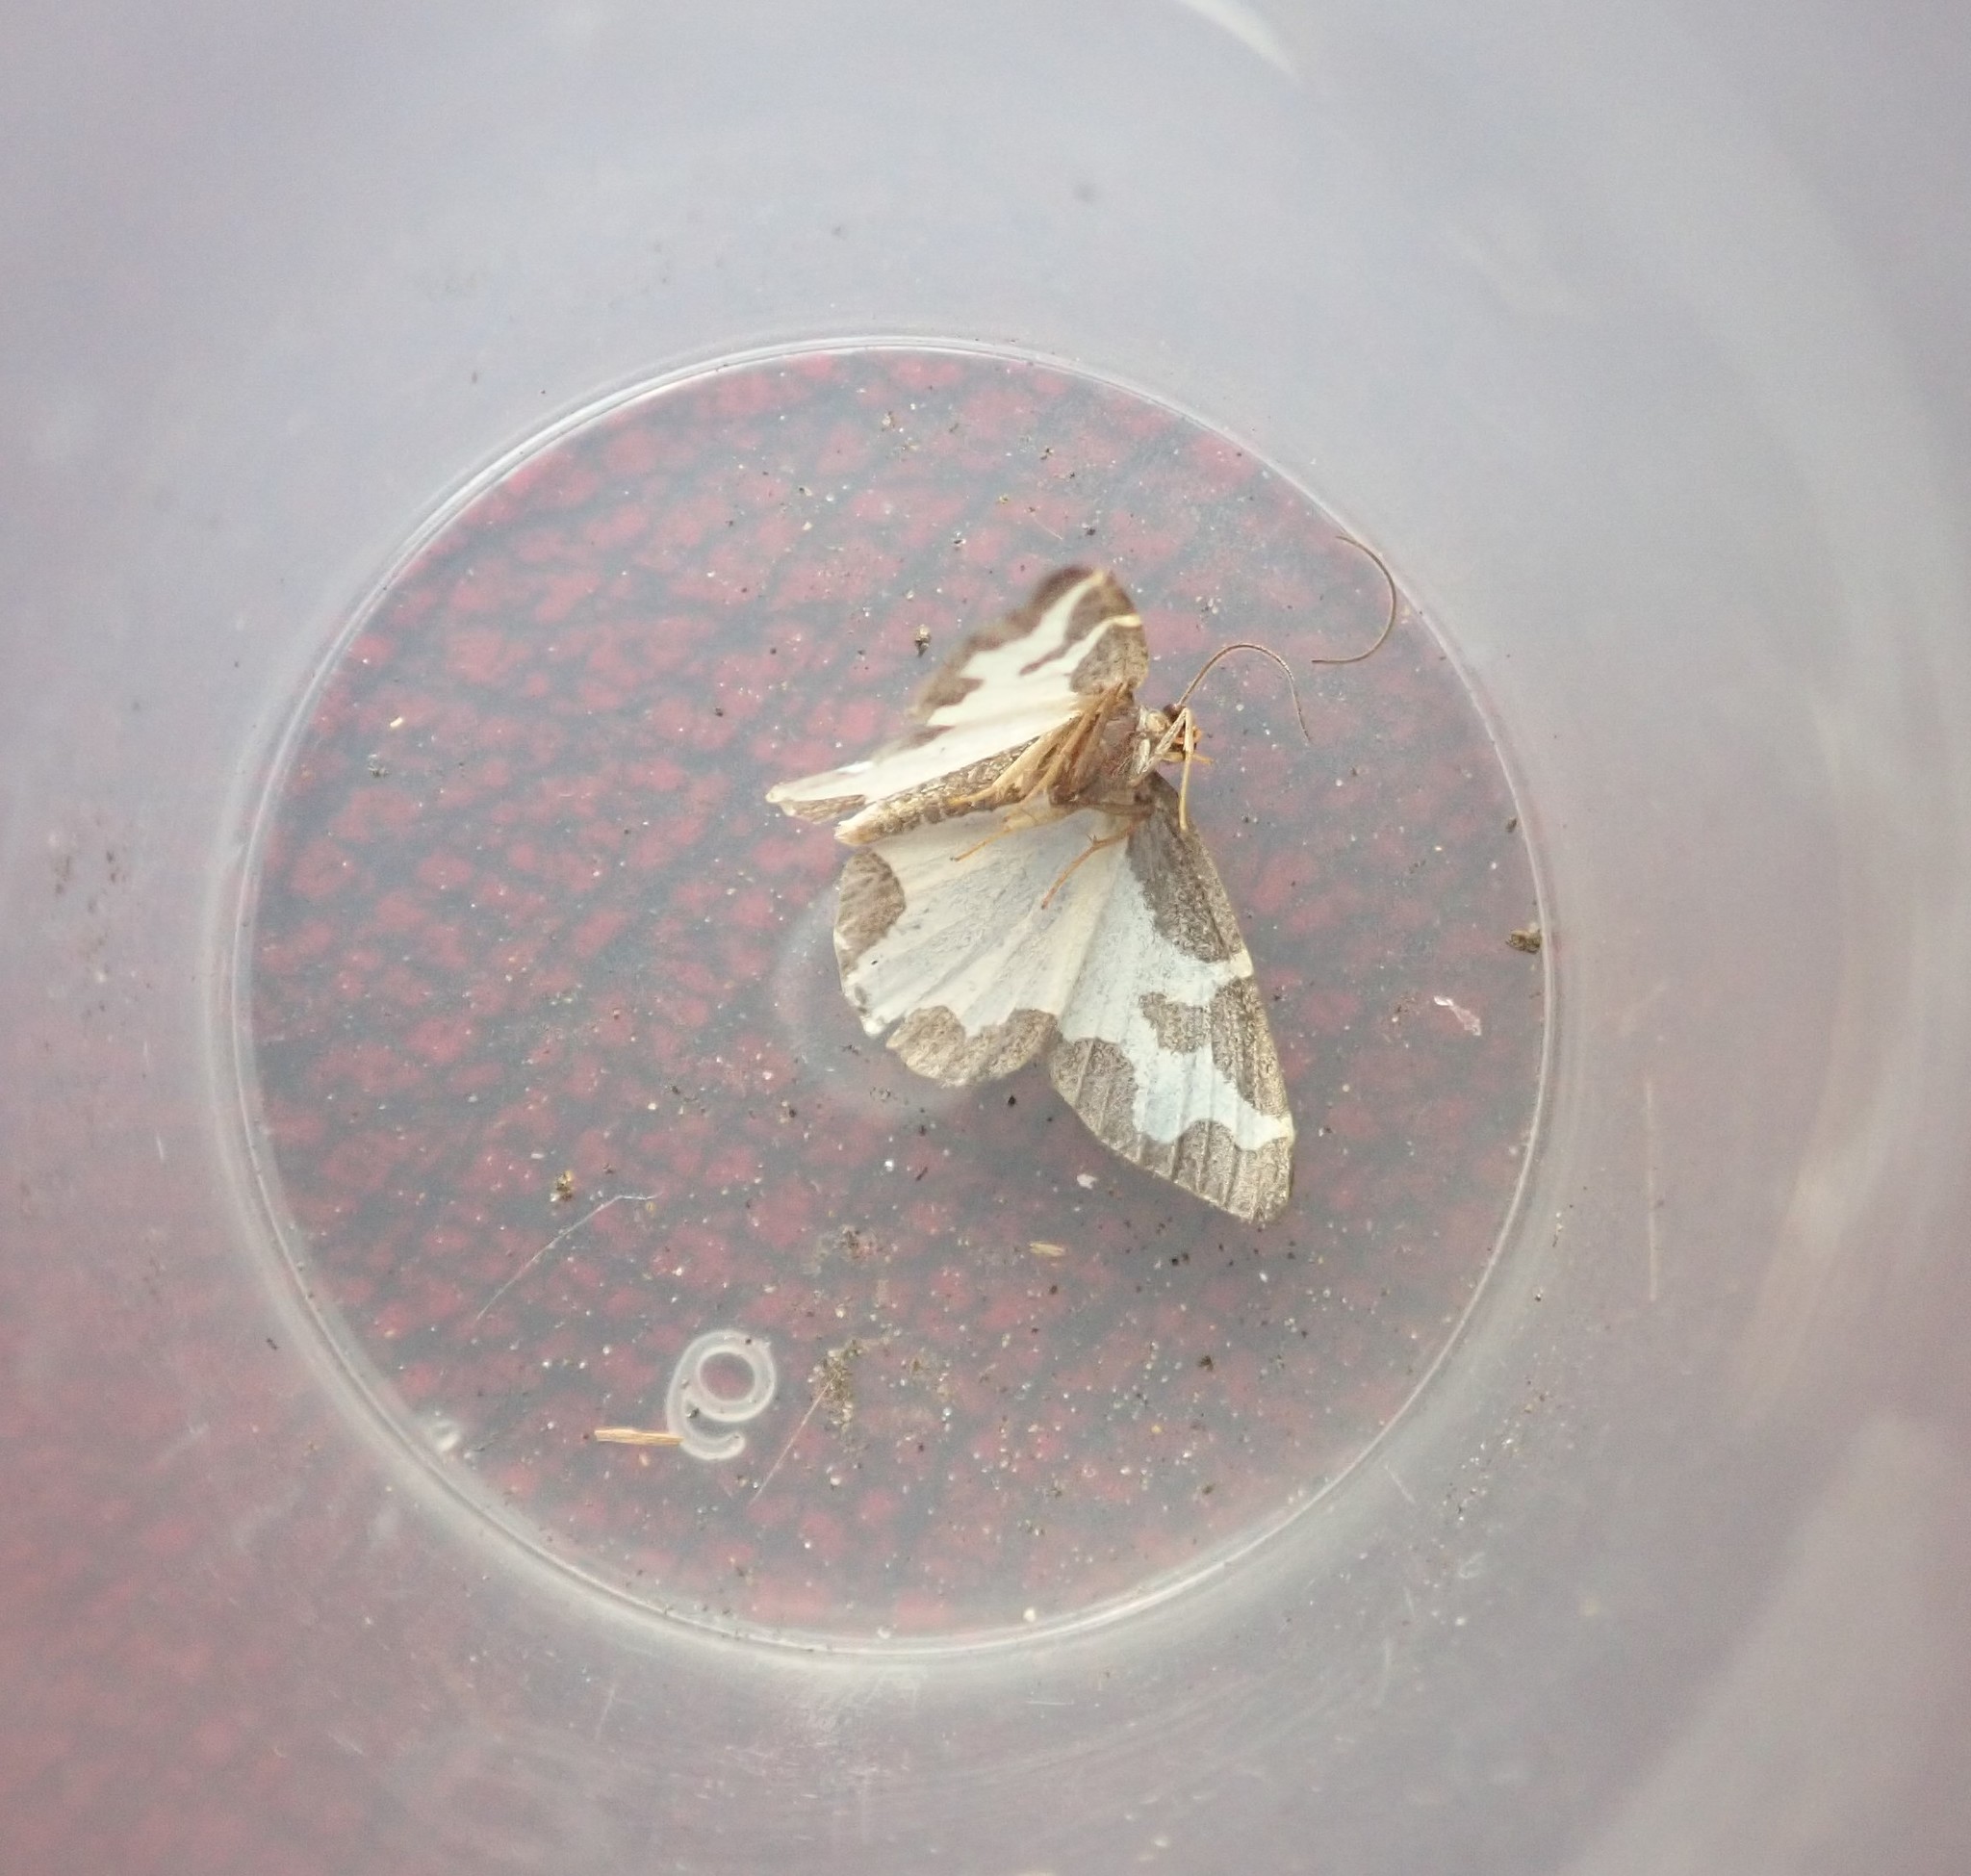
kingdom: Animalia
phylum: Arthropoda
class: Insecta
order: Lepidoptera
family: Geometridae
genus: Lomaspilis
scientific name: Lomaspilis marginata
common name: Clouded border
